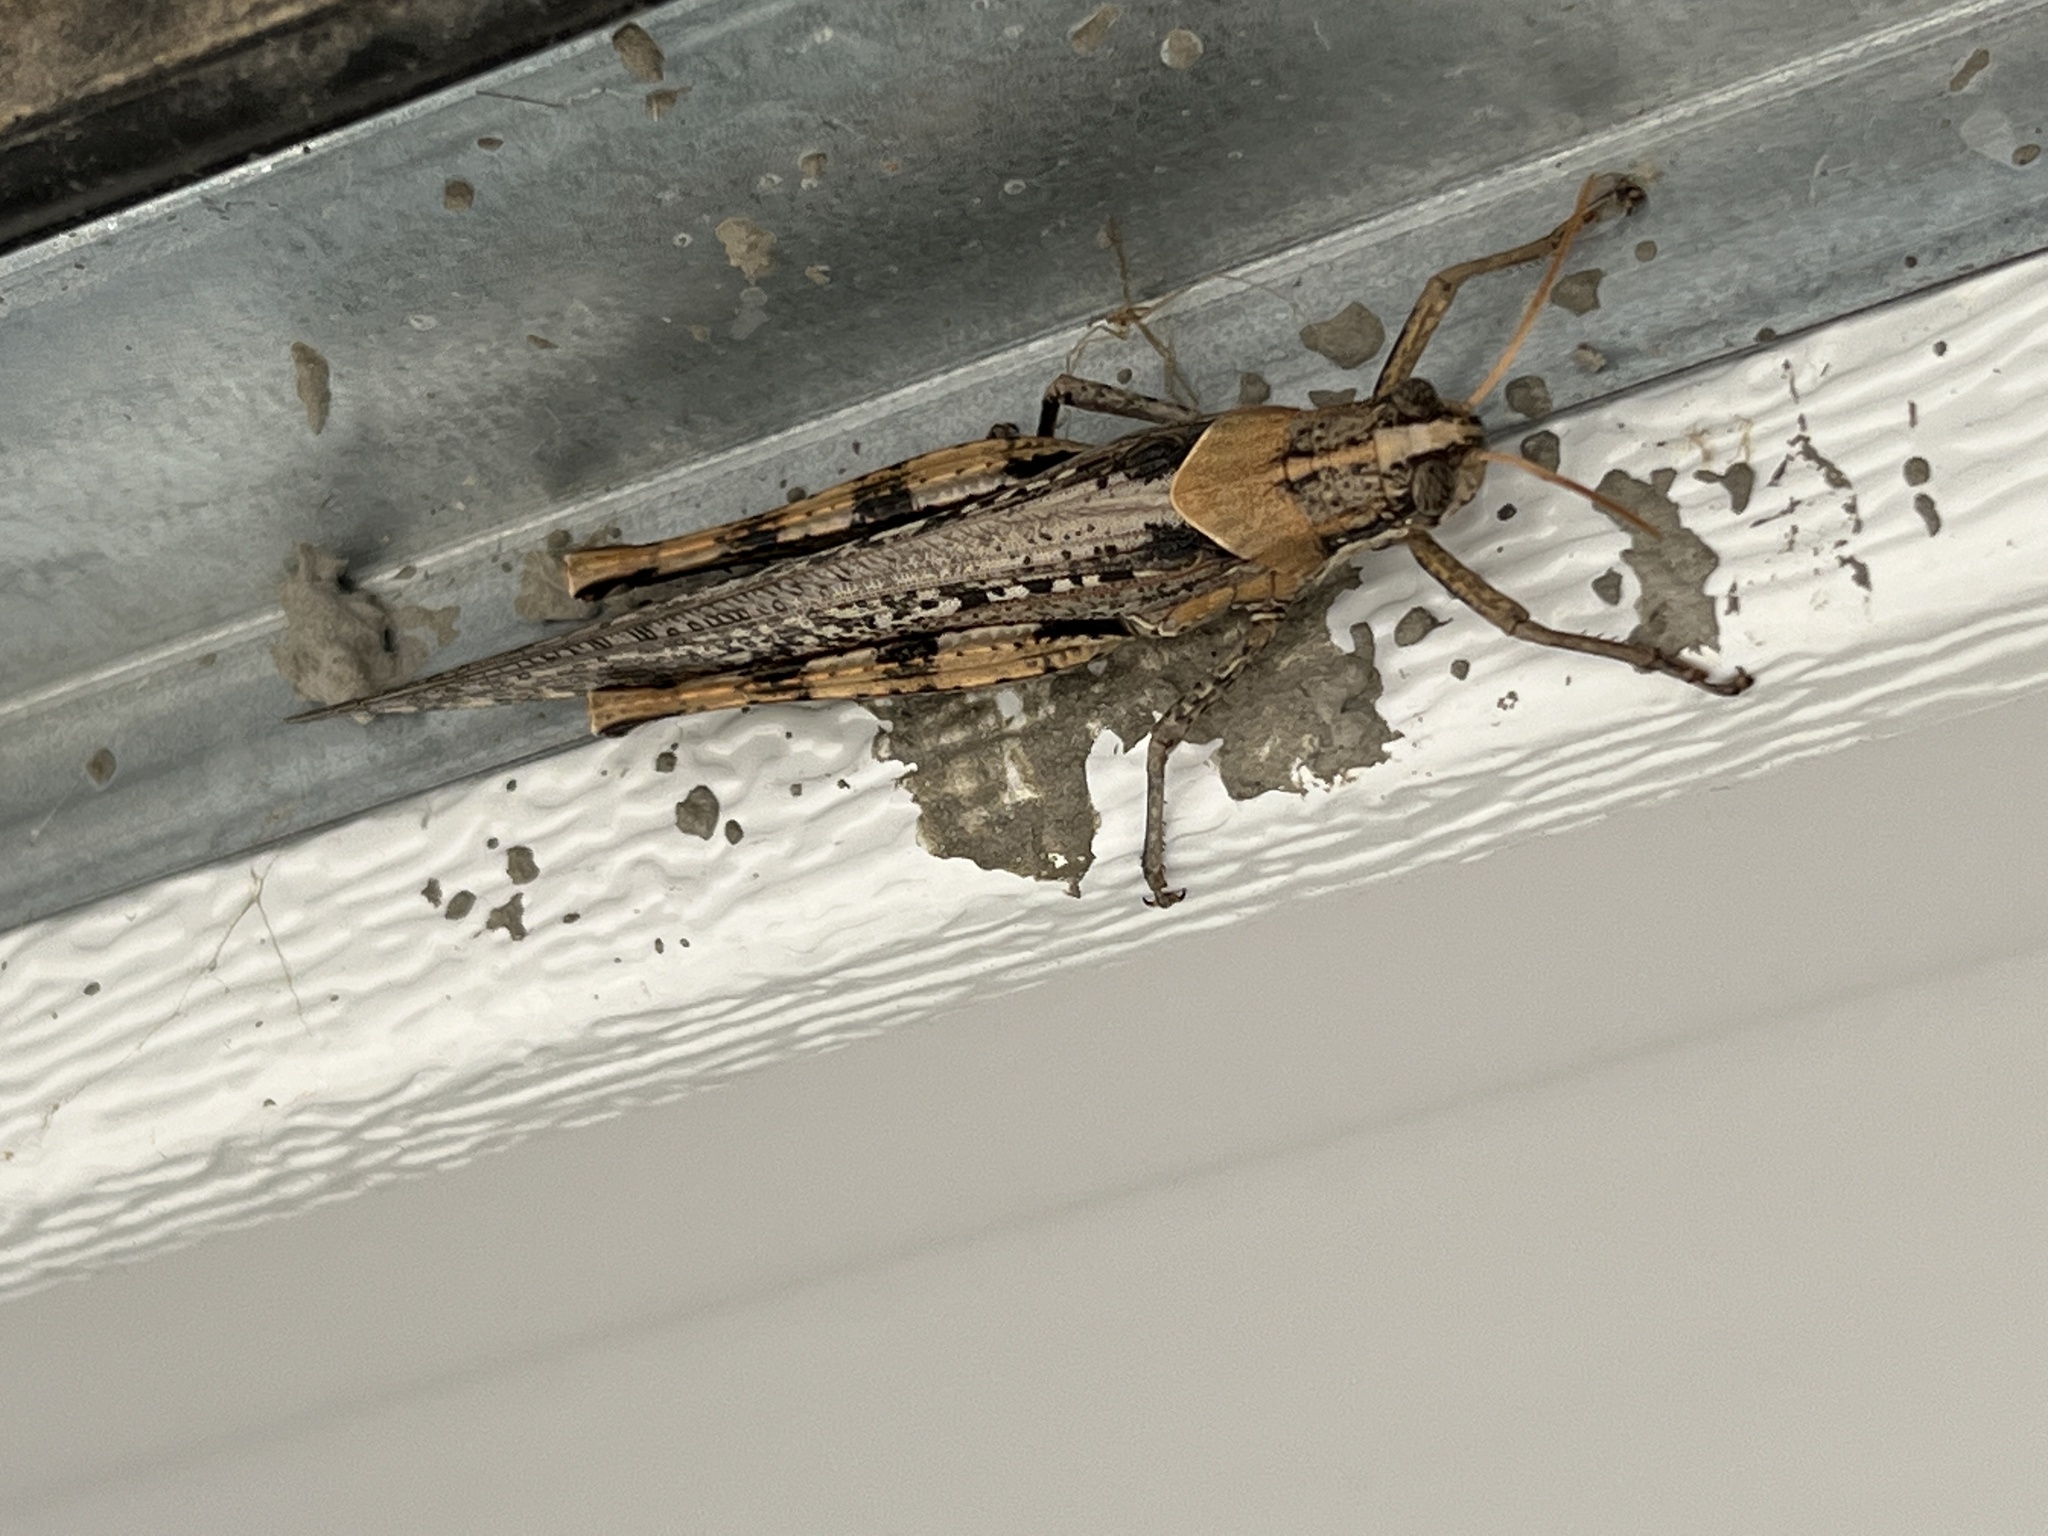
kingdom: Animalia
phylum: Arthropoda
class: Insecta
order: Orthoptera
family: Acrididae
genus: Schistocerca
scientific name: Schistocerca nitens
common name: Vagrant grasshopper
